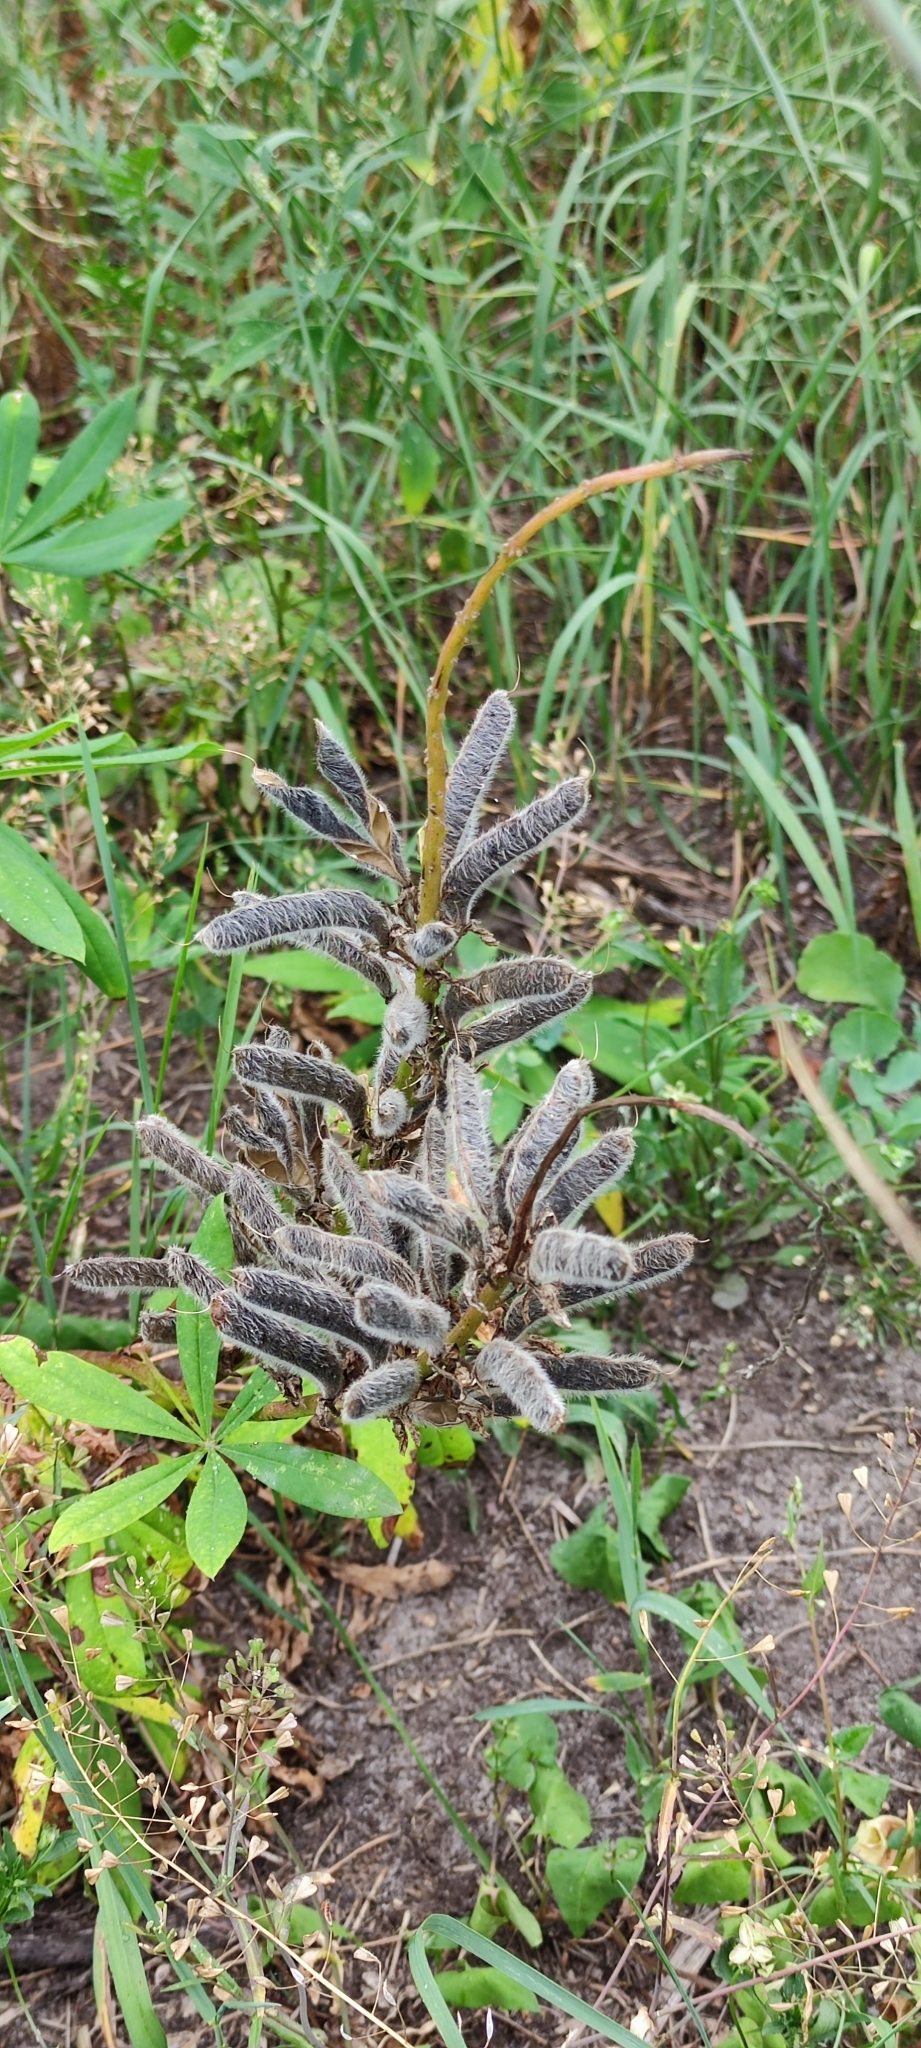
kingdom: Plantae
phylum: Tracheophyta
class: Magnoliopsida
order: Fabales
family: Fabaceae
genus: Lupinus
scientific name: Lupinus polyphyllus
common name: Garden lupin
